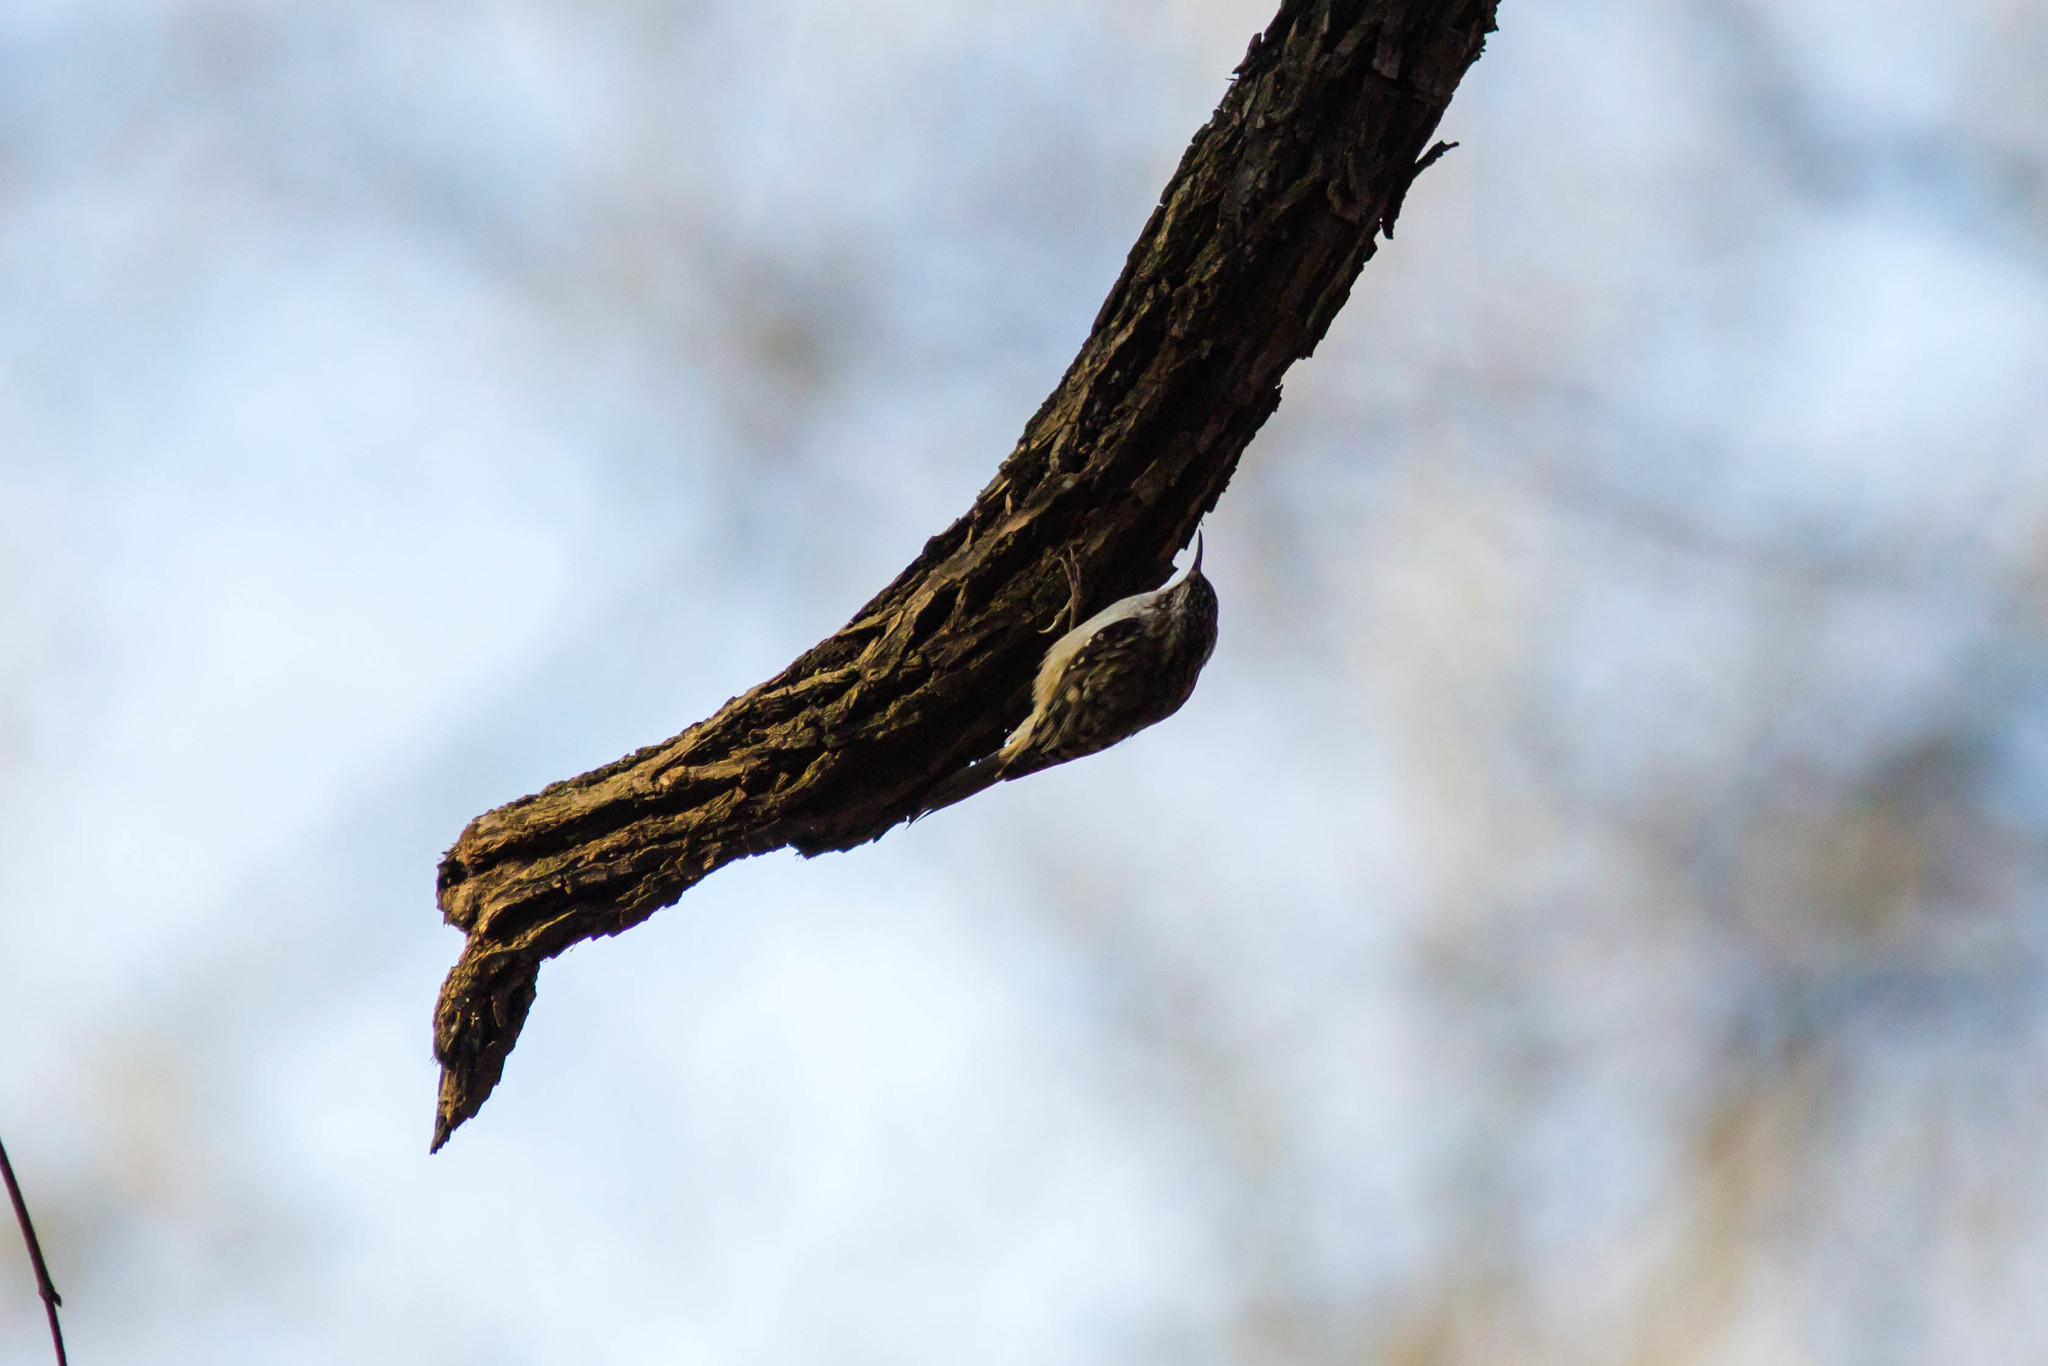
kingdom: Animalia
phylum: Chordata
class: Aves
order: Passeriformes
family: Certhiidae
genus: Certhia
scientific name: Certhia americana
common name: Brown creeper
